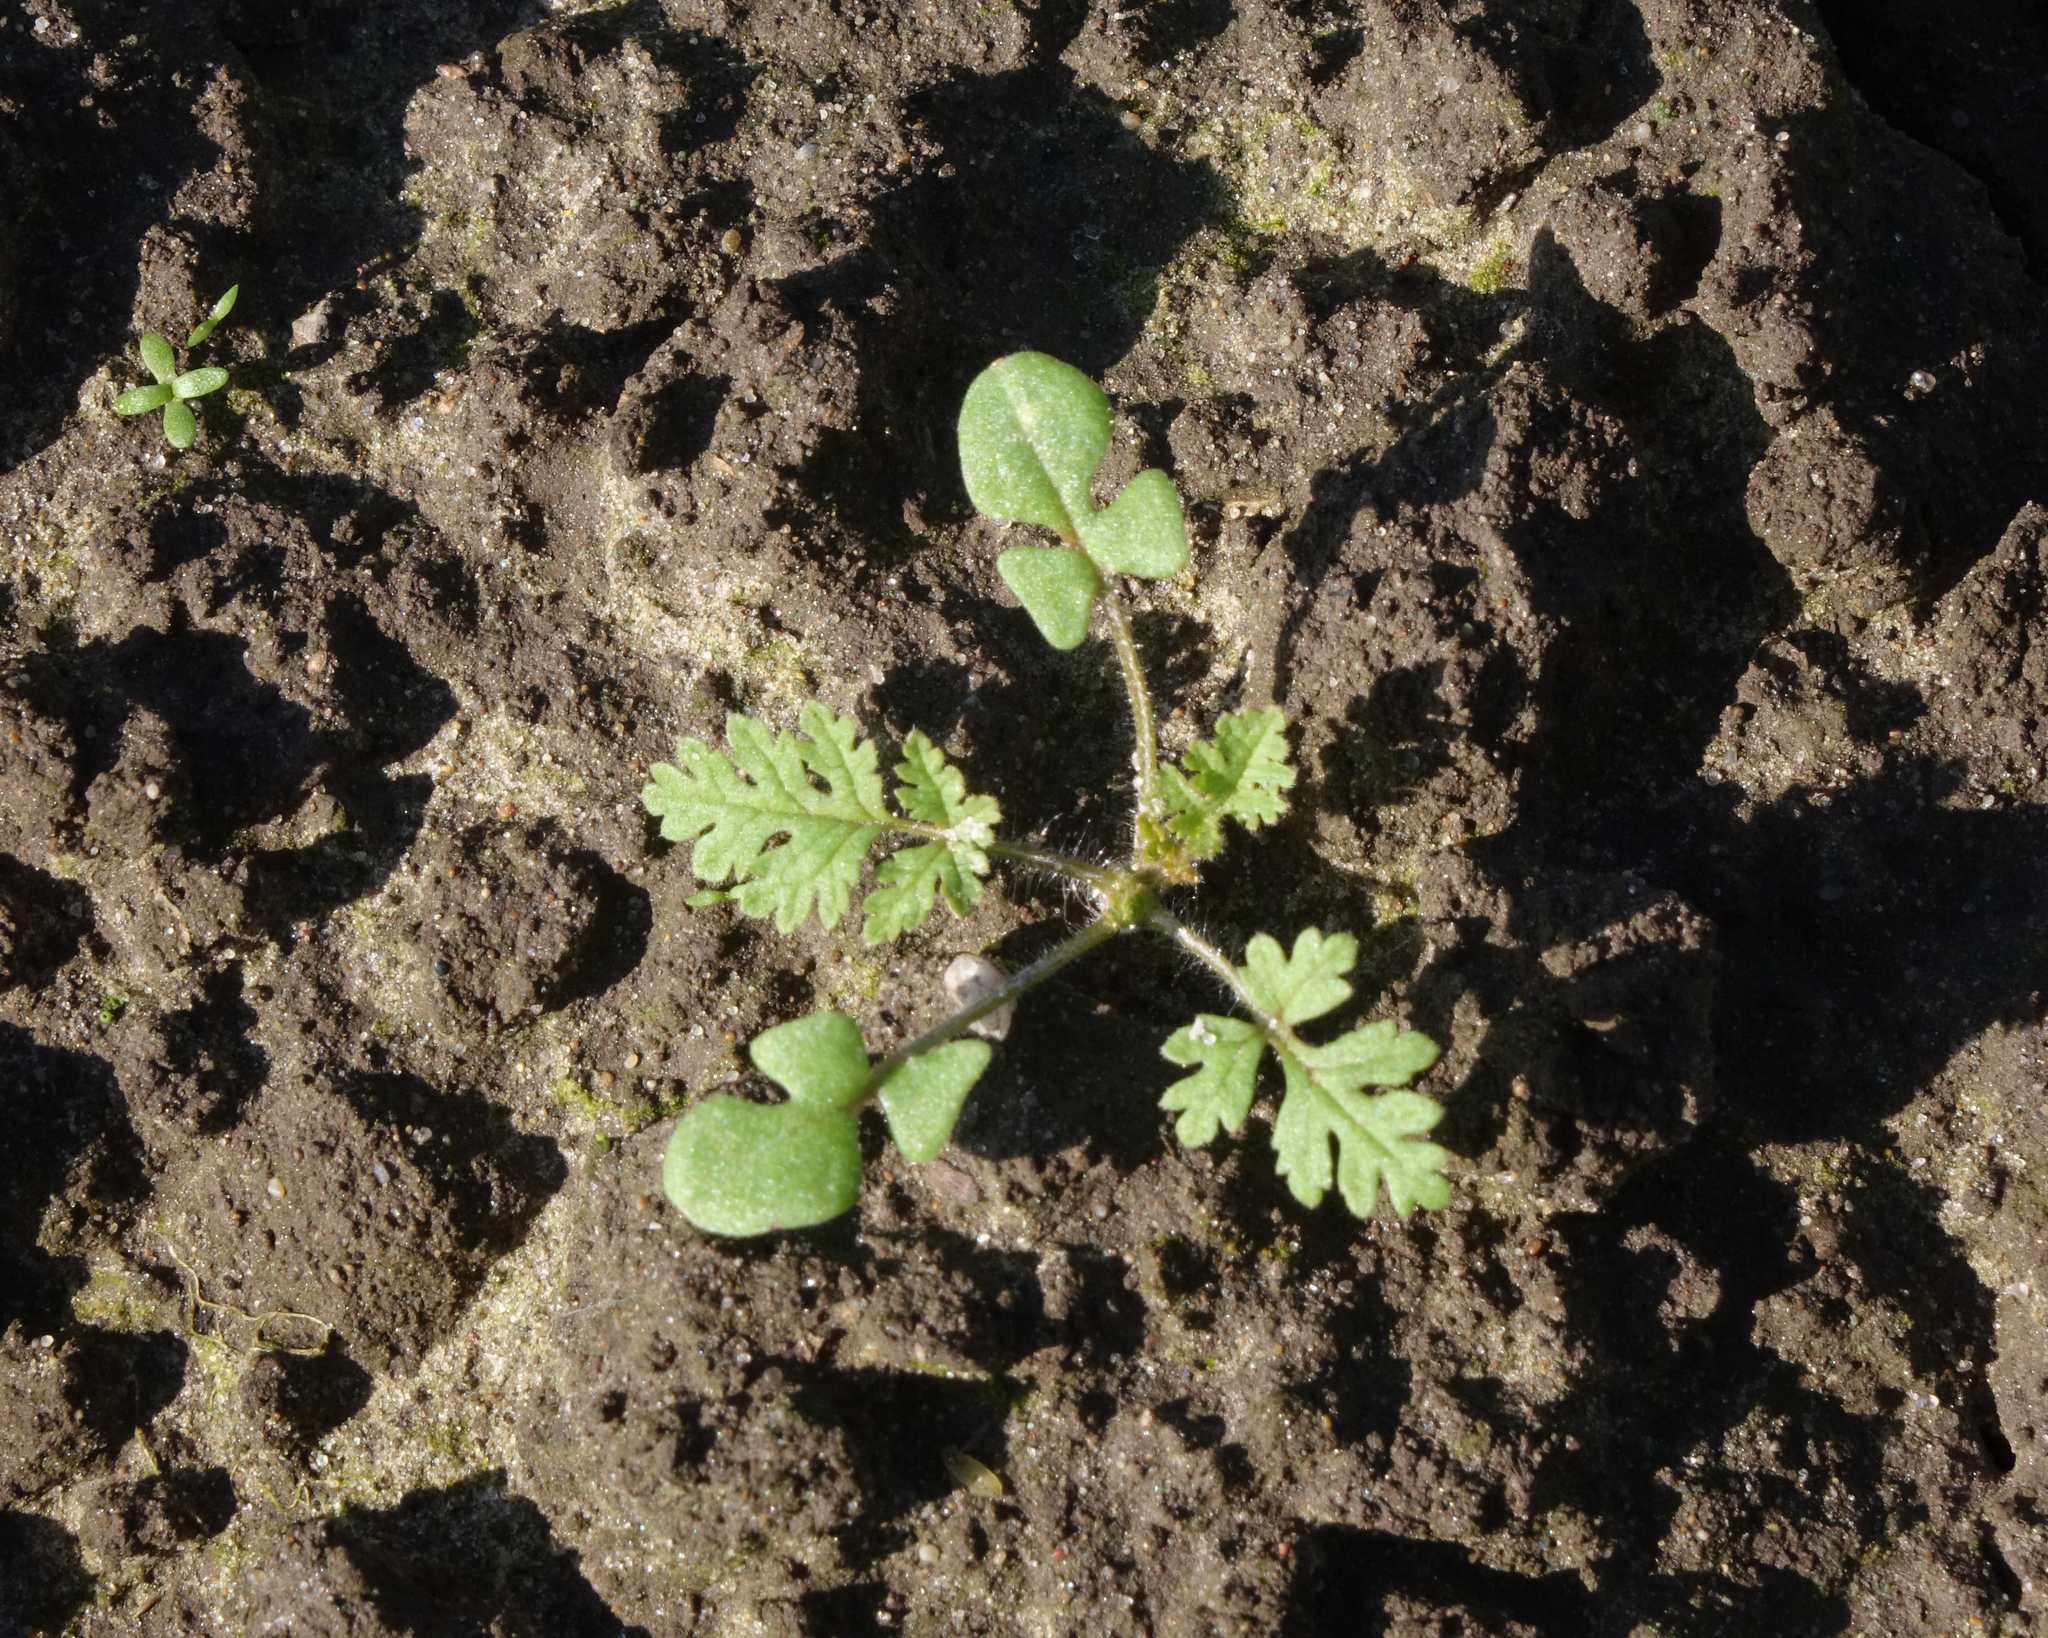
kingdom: Plantae
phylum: Tracheophyta
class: Magnoliopsida
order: Geraniales
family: Geraniaceae
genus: Erodium
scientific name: Erodium cicutarium
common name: Common stork's-bill
